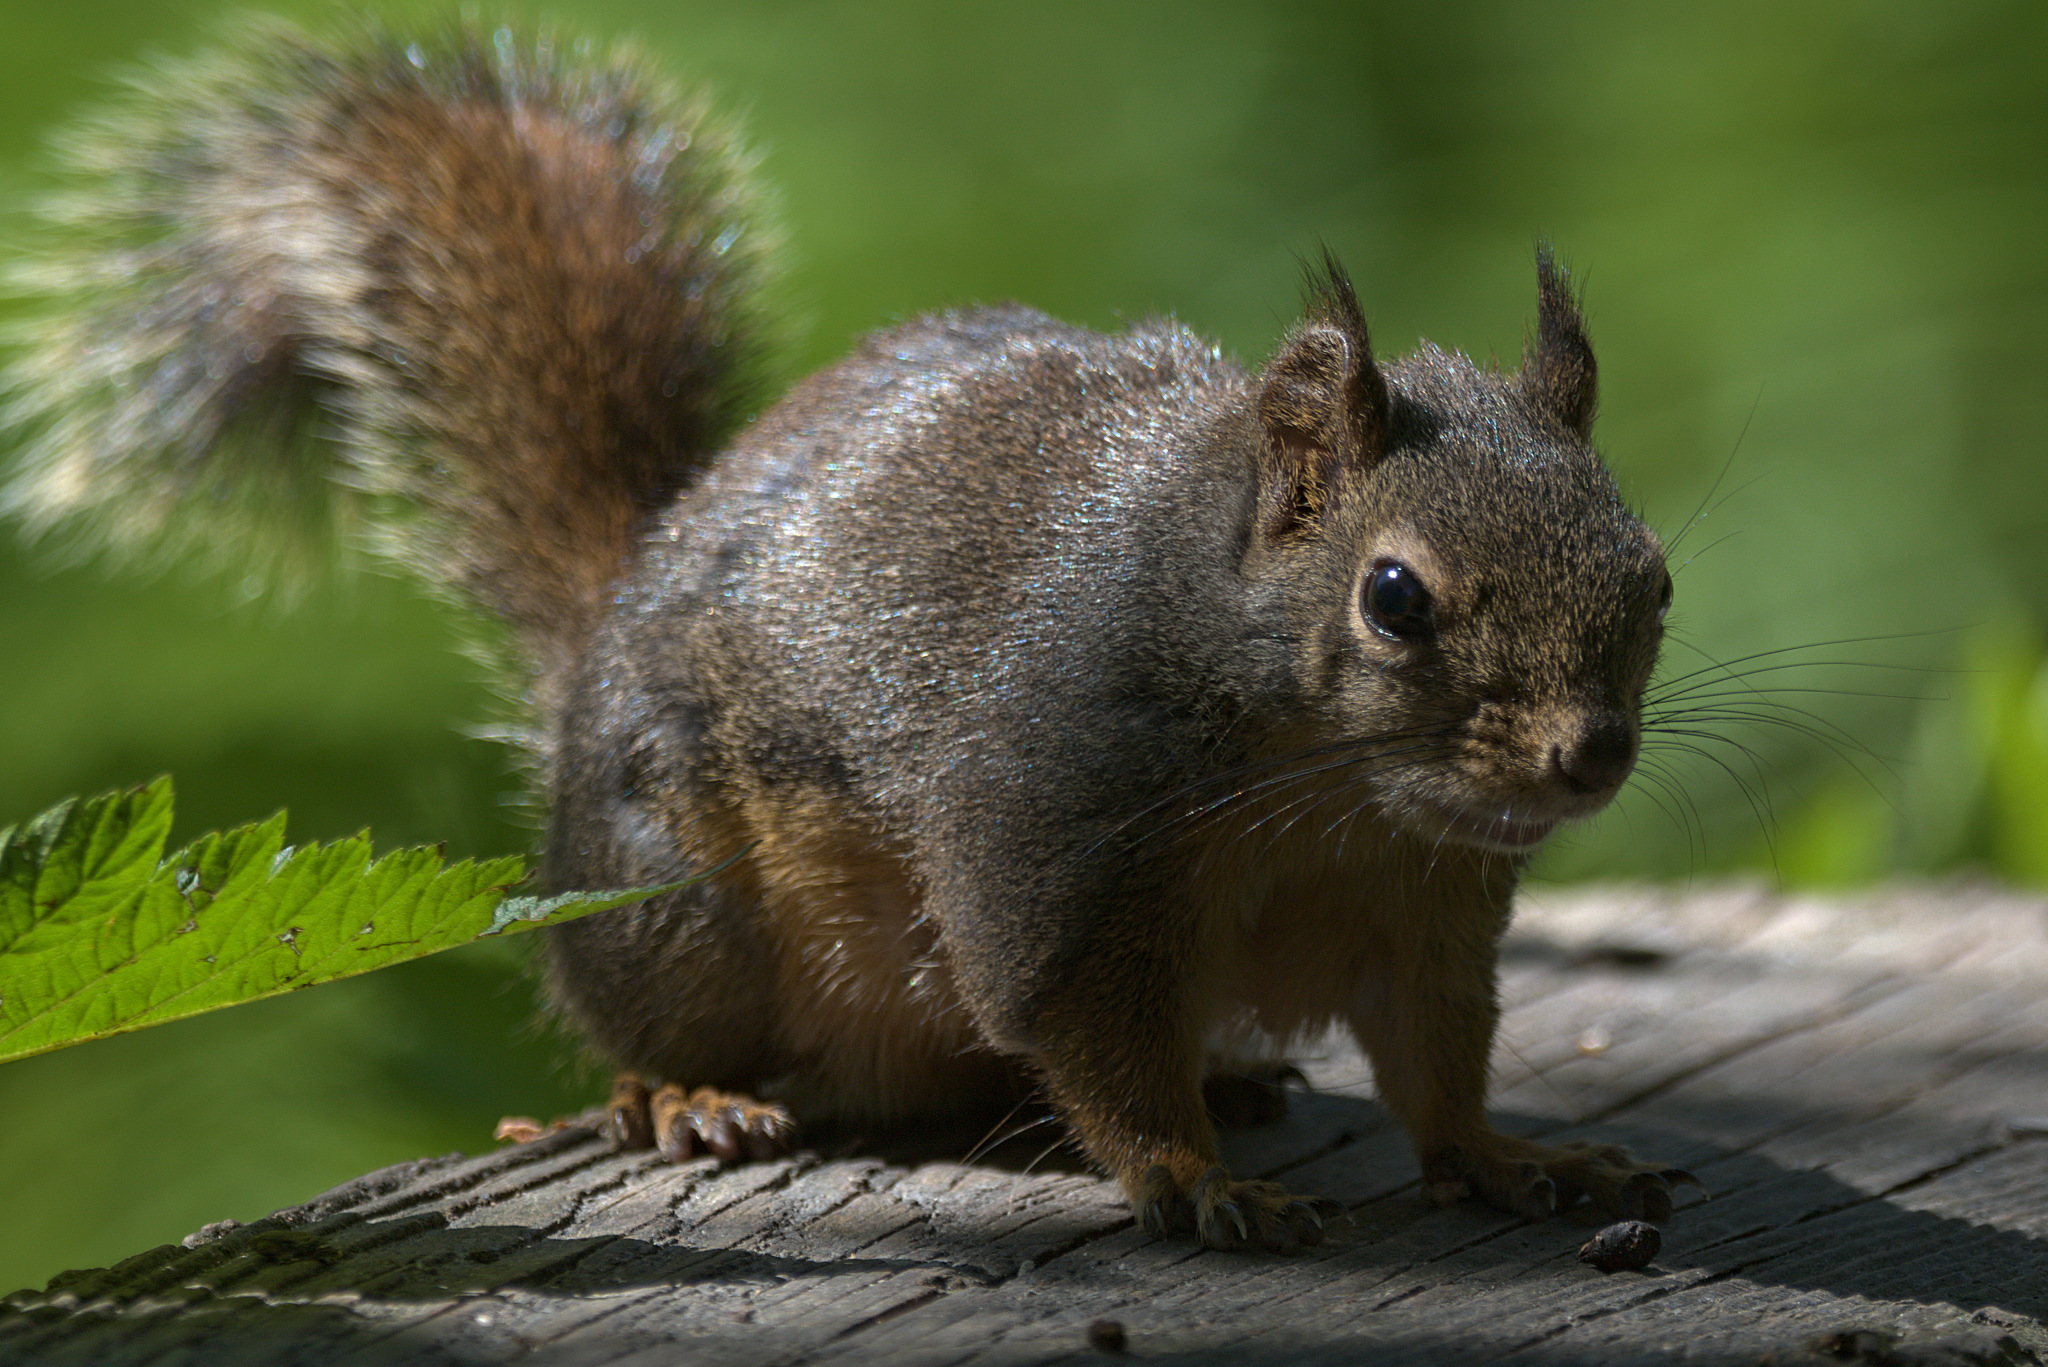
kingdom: Animalia
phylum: Chordata
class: Mammalia
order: Rodentia
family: Sciuridae
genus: Tamiasciurus
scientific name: Tamiasciurus douglasii
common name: Douglas's squirrel
